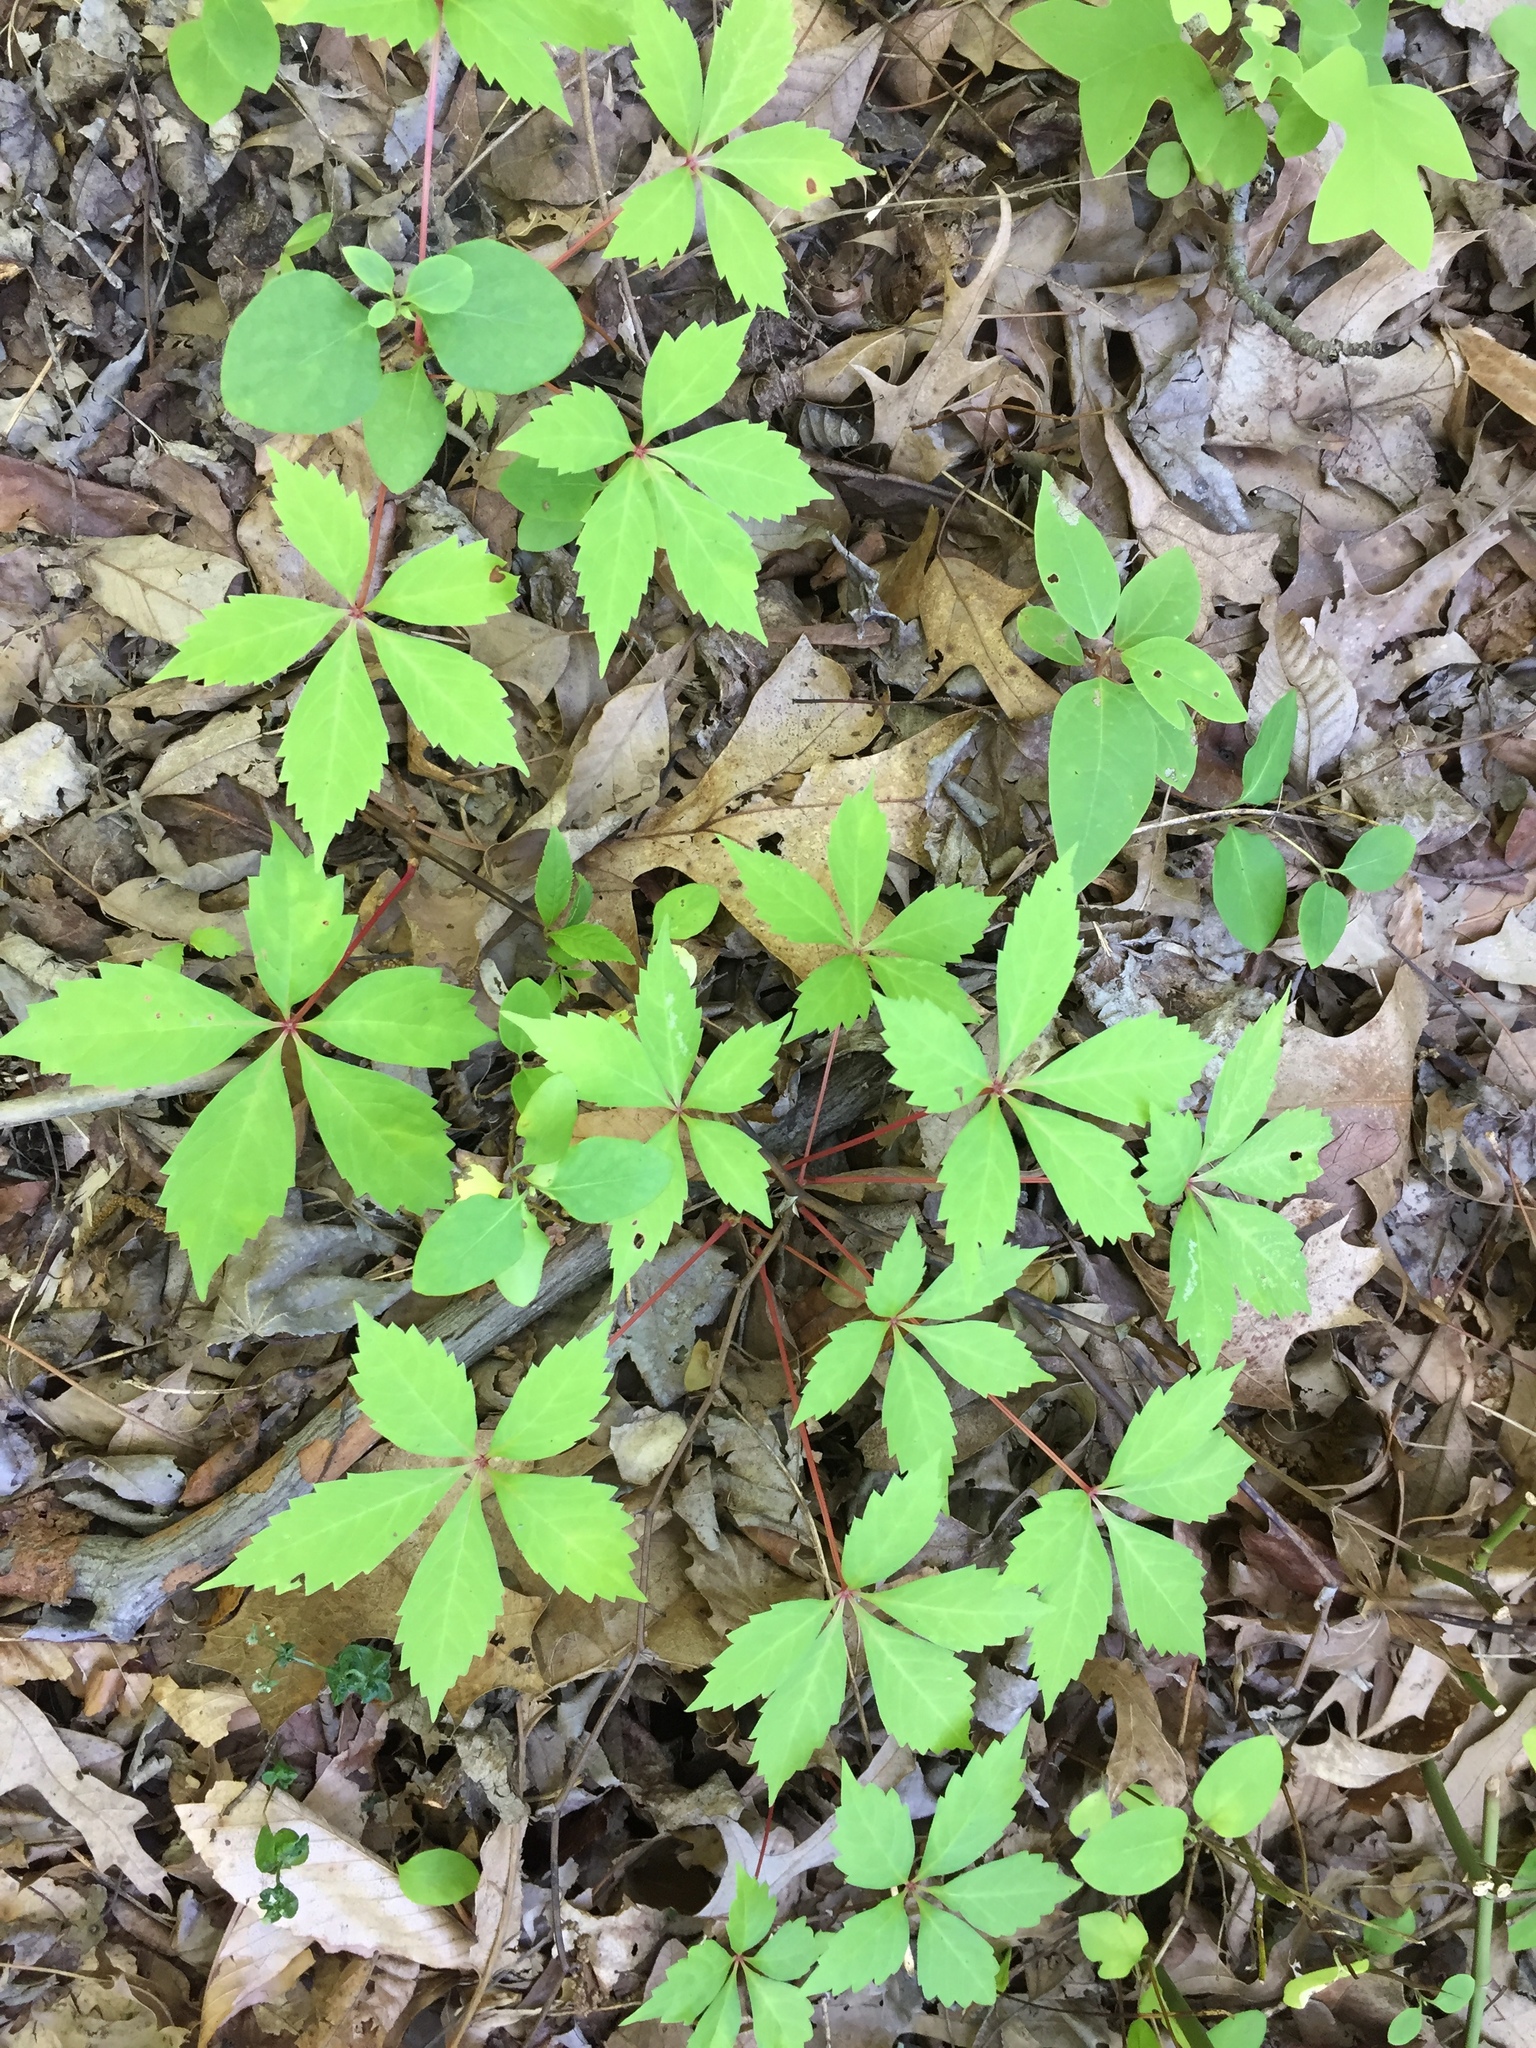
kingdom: Plantae
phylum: Tracheophyta
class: Magnoliopsida
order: Vitales
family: Vitaceae
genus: Parthenocissus
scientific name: Parthenocissus quinquefolia
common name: Virginia-creeper
